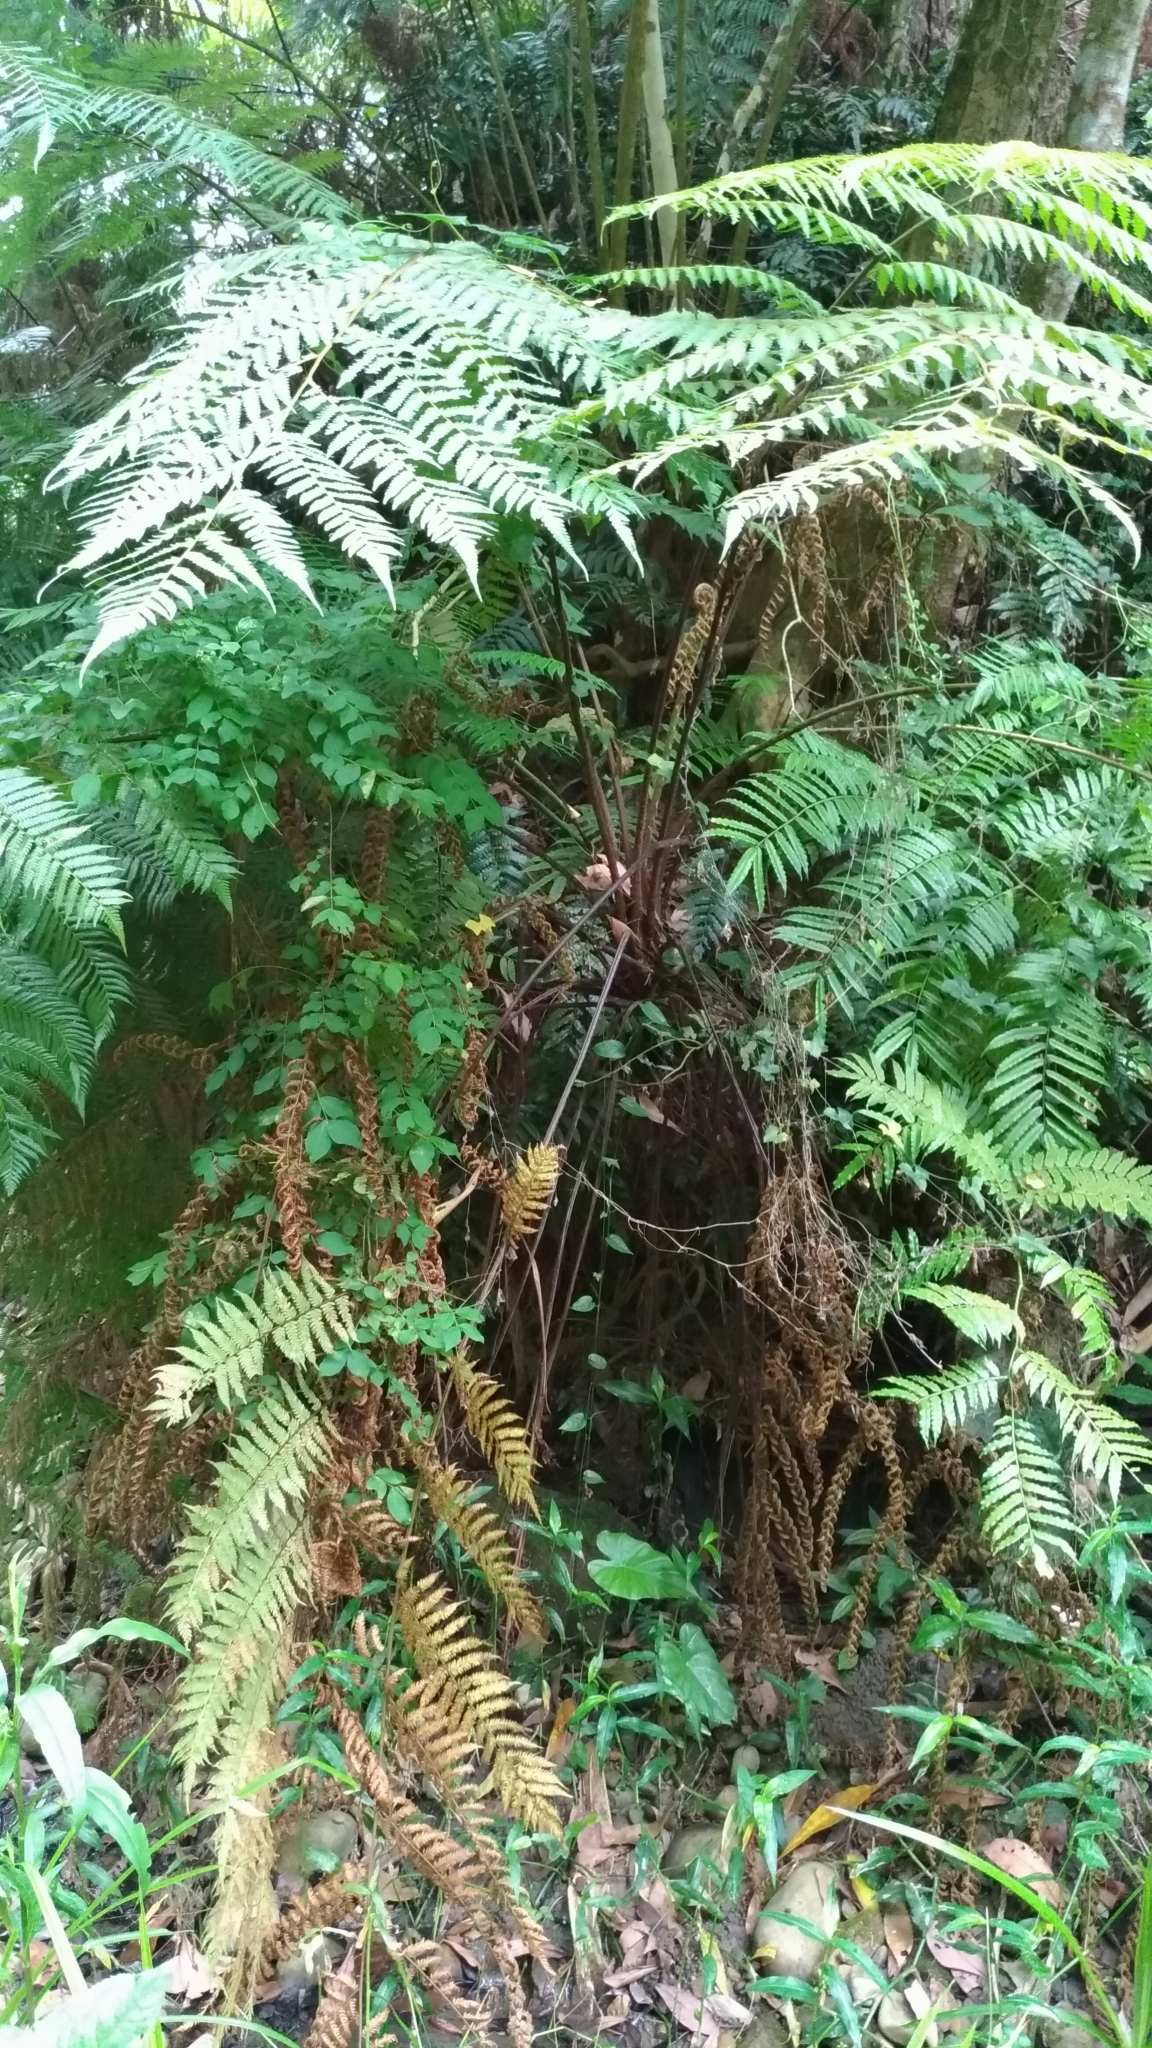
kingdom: Plantae
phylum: Tracheophyta
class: Polypodiopsida
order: Cyatheales
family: Cyatheaceae
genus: Alsophila
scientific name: Alsophila spinulosa
